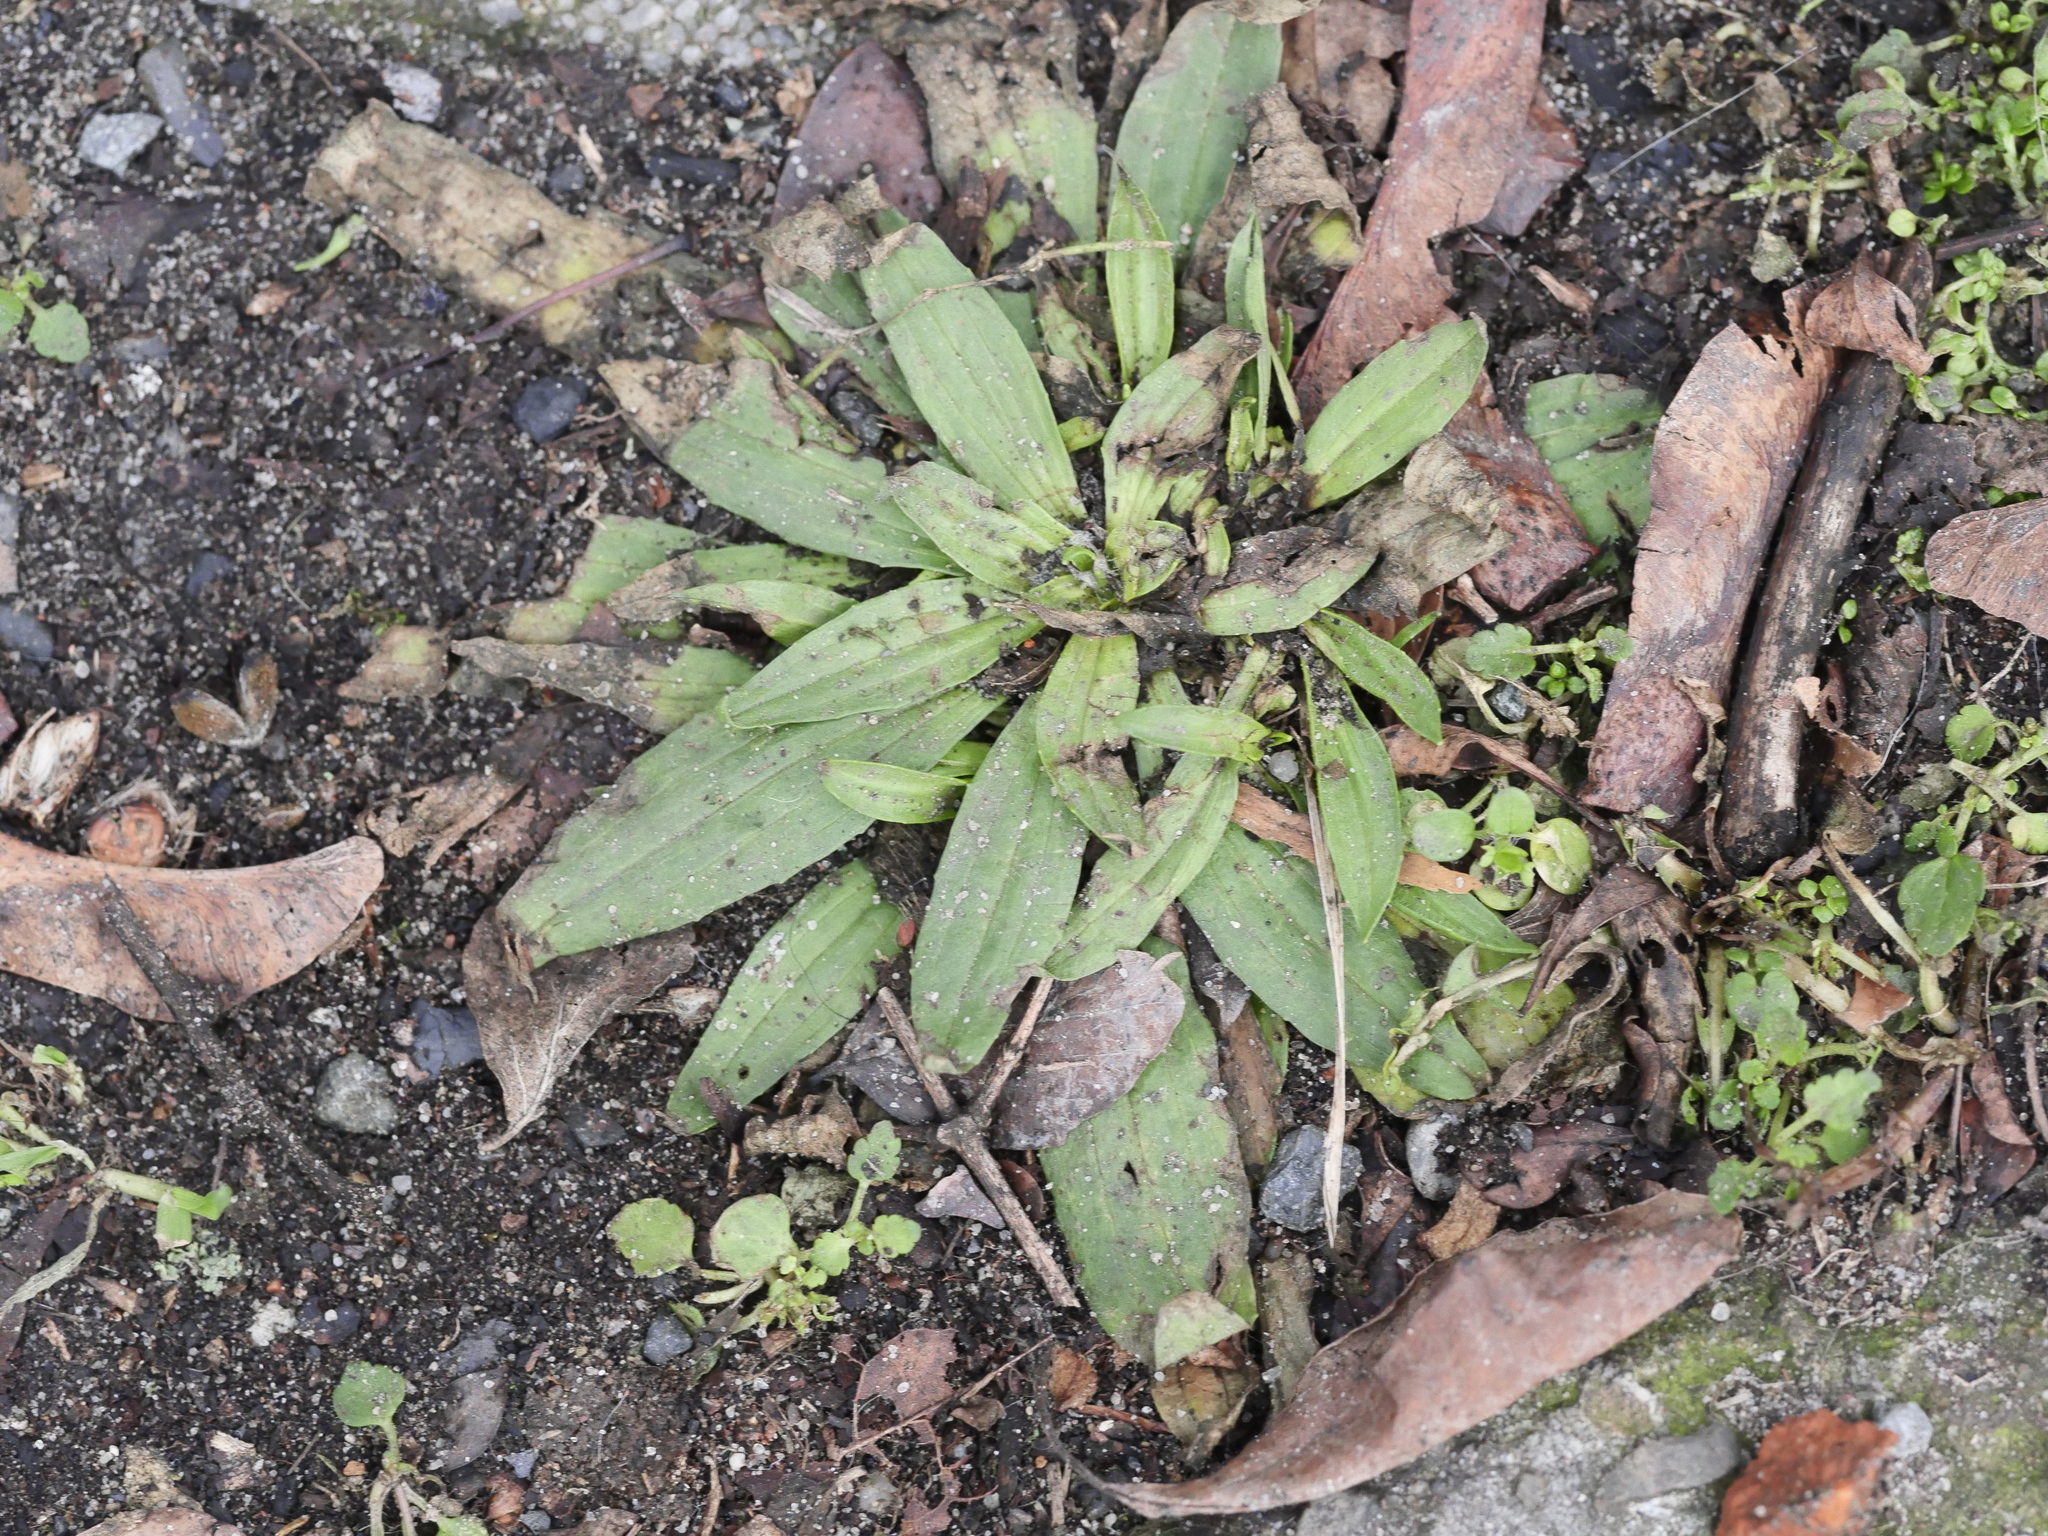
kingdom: Plantae
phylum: Tracheophyta
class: Magnoliopsida
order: Lamiales
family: Plantaginaceae
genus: Plantago
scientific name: Plantago lanceolata
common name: Ribwort plantain
